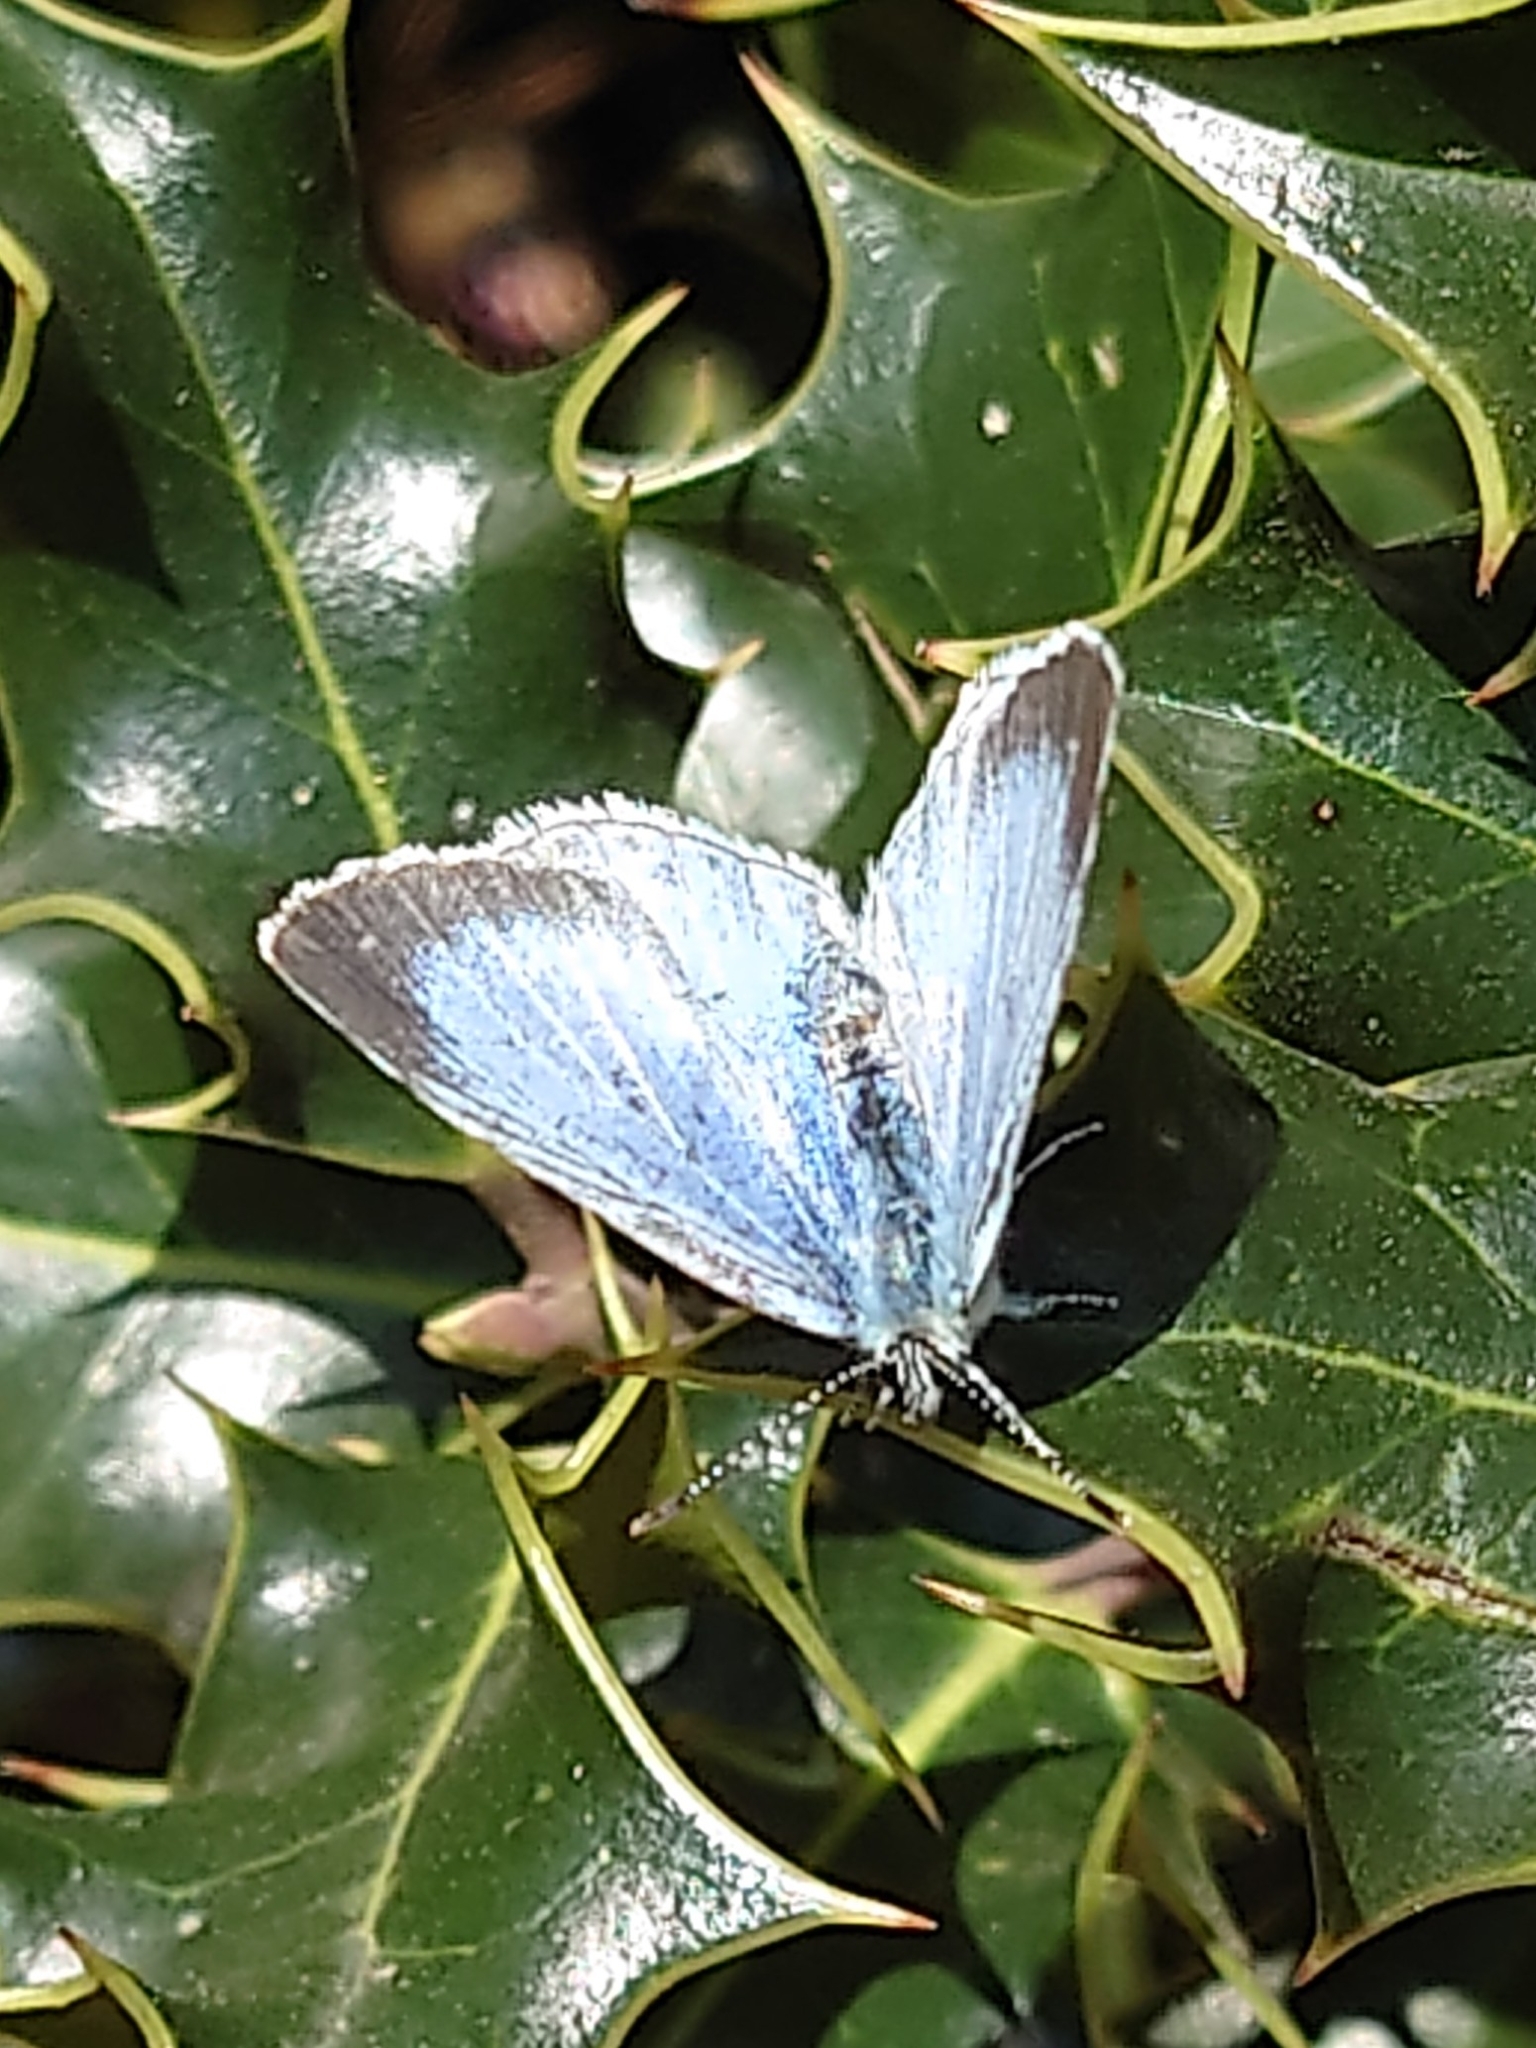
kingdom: Animalia
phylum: Arthropoda
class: Insecta
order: Lepidoptera
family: Lycaenidae
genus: Celastrina
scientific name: Celastrina argiolus
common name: Holly blue
